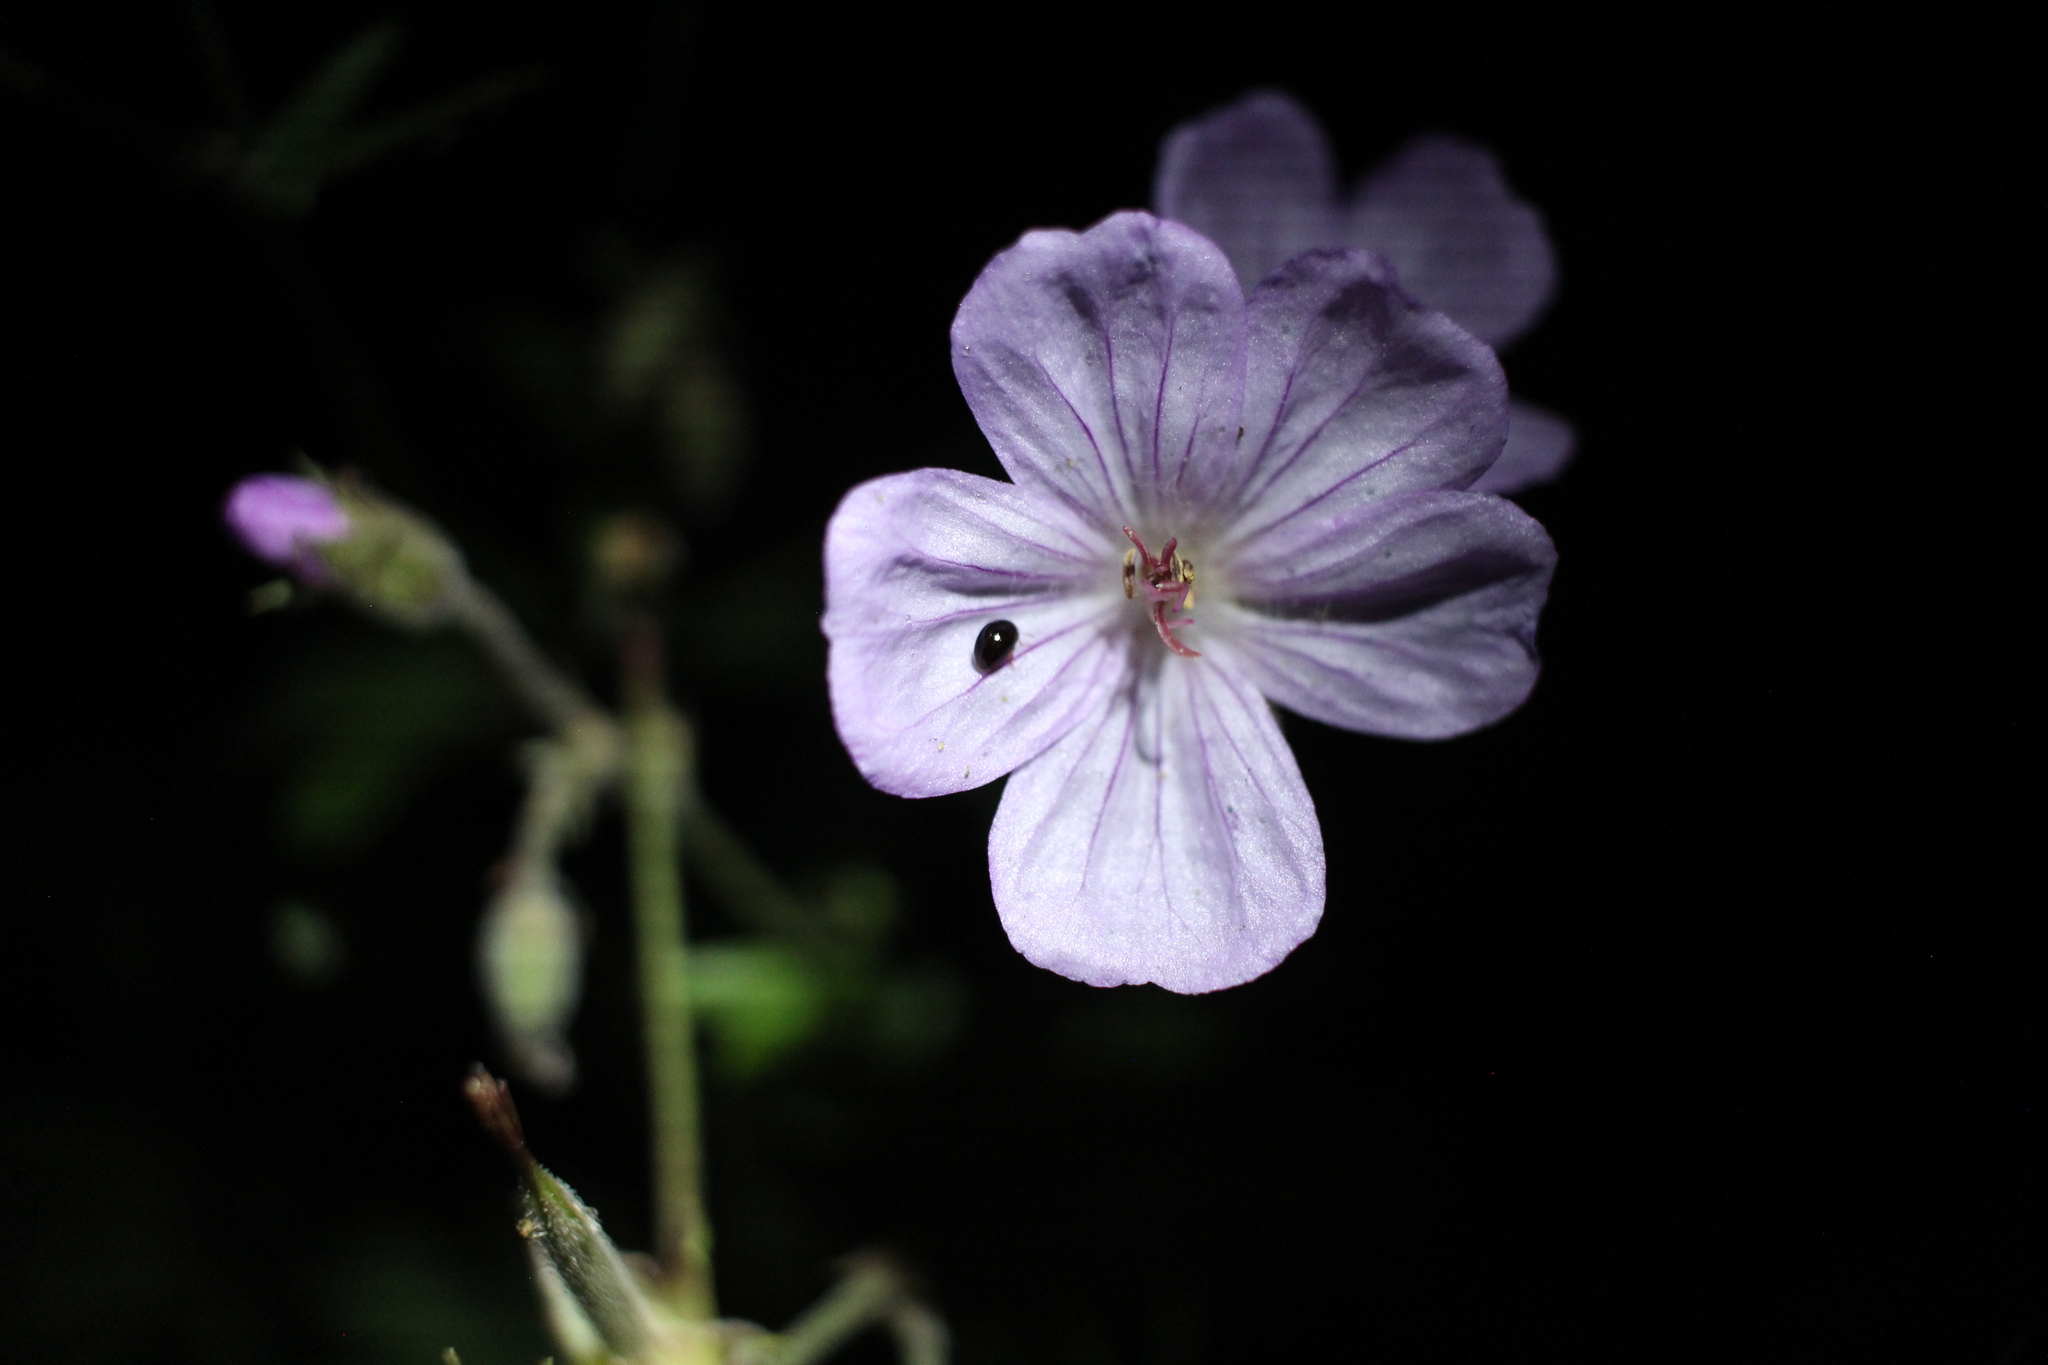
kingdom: Plantae
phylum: Tracheophyta
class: Magnoliopsida
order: Geraniales
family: Geraniaceae
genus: Geranium
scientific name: Geranium viscosissimum
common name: Purple geranium
